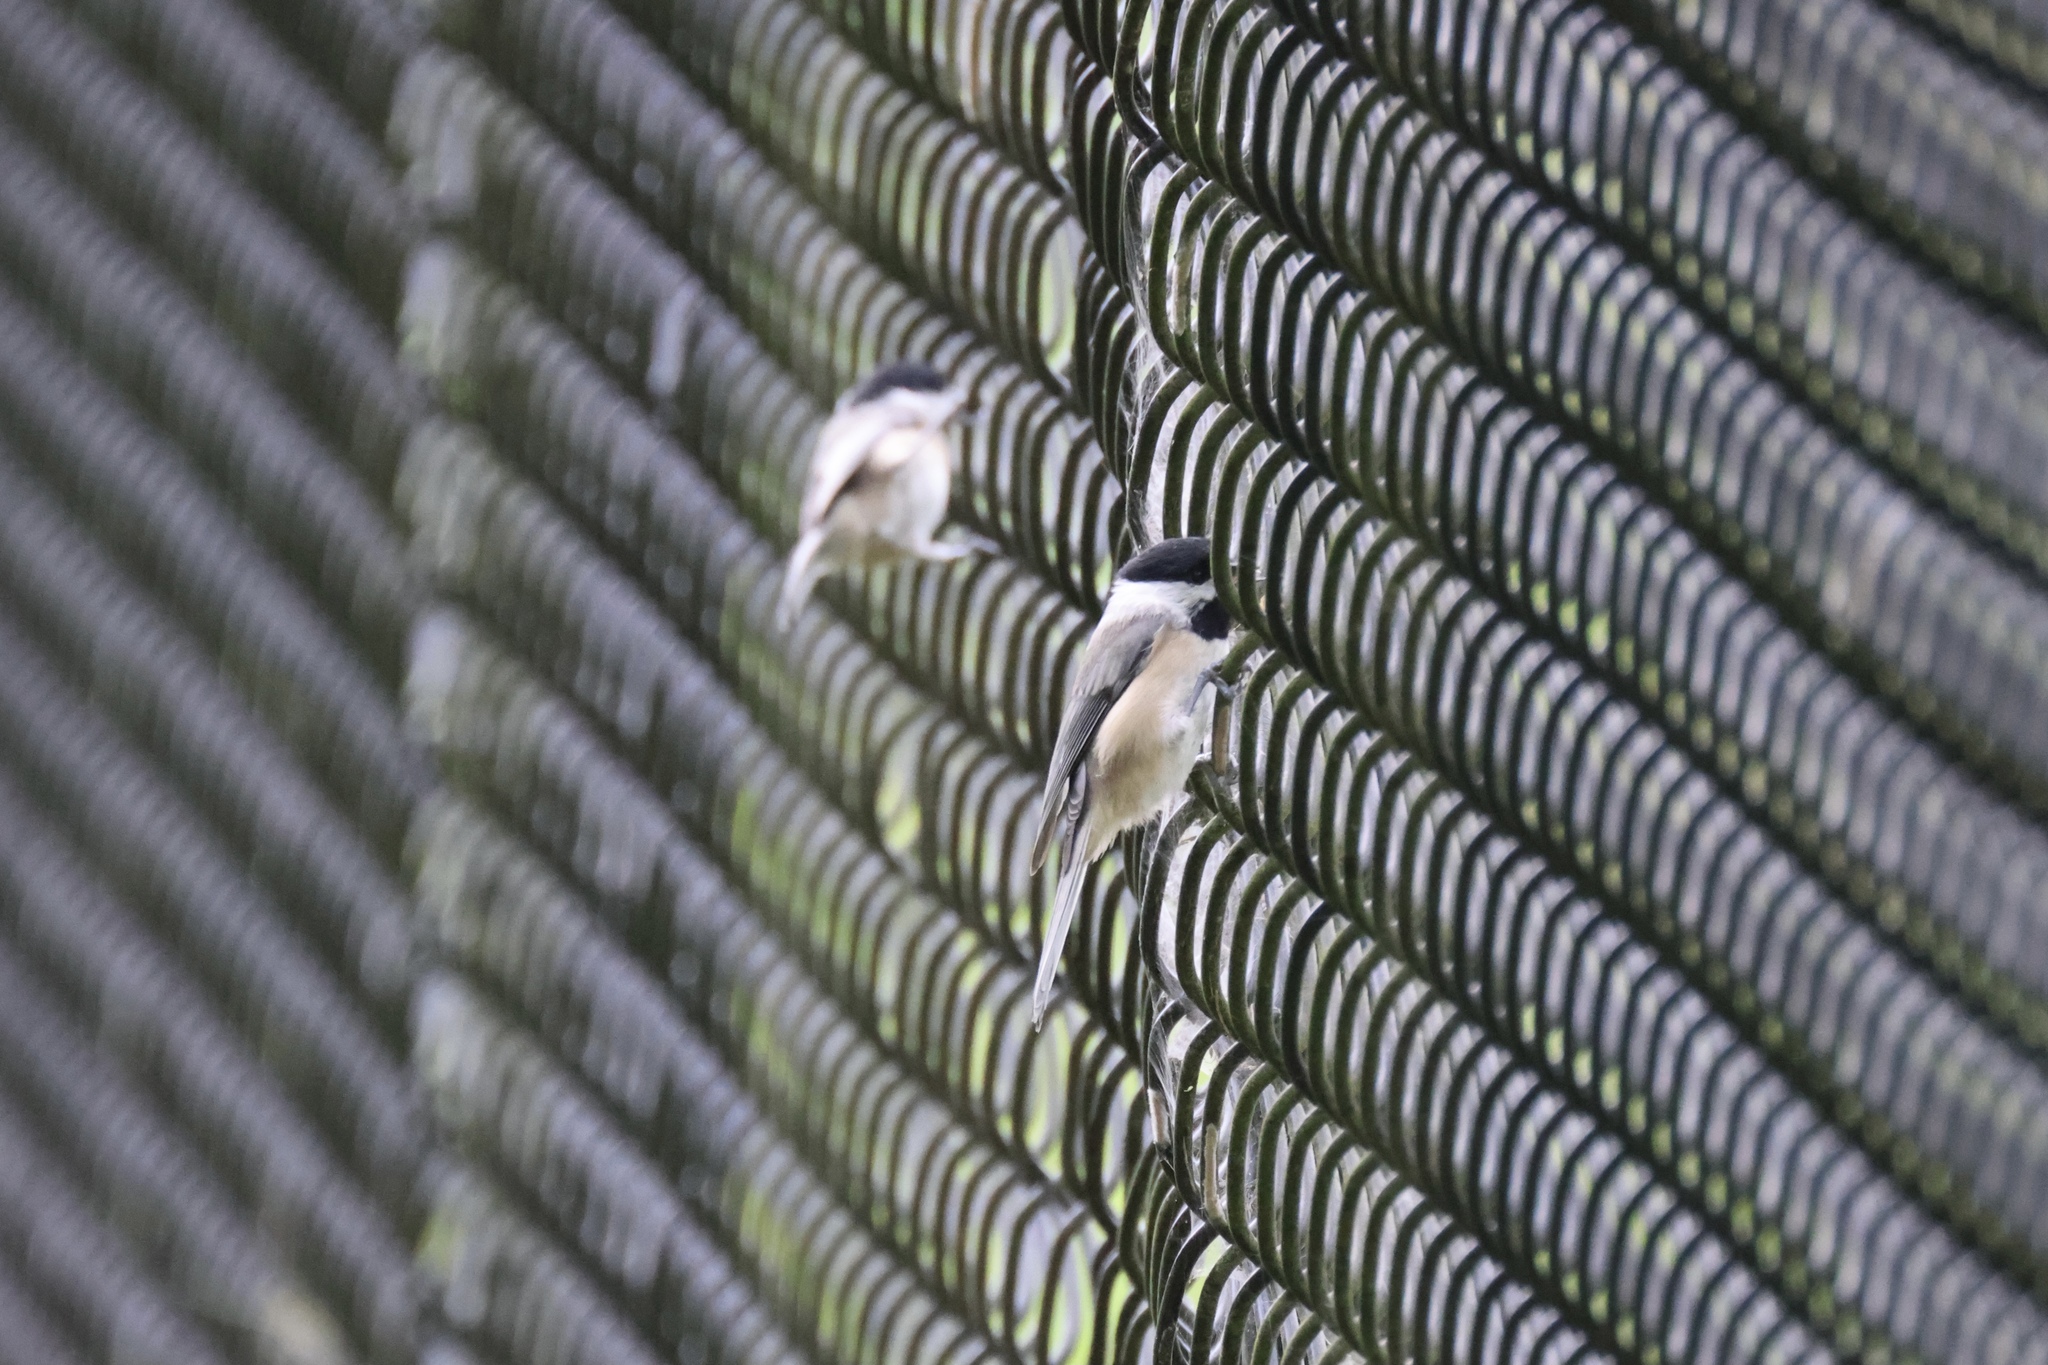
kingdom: Animalia
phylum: Chordata
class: Aves
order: Passeriformes
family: Paridae
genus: Poecile
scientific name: Poecile carolinensis
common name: Carolina chickadee
